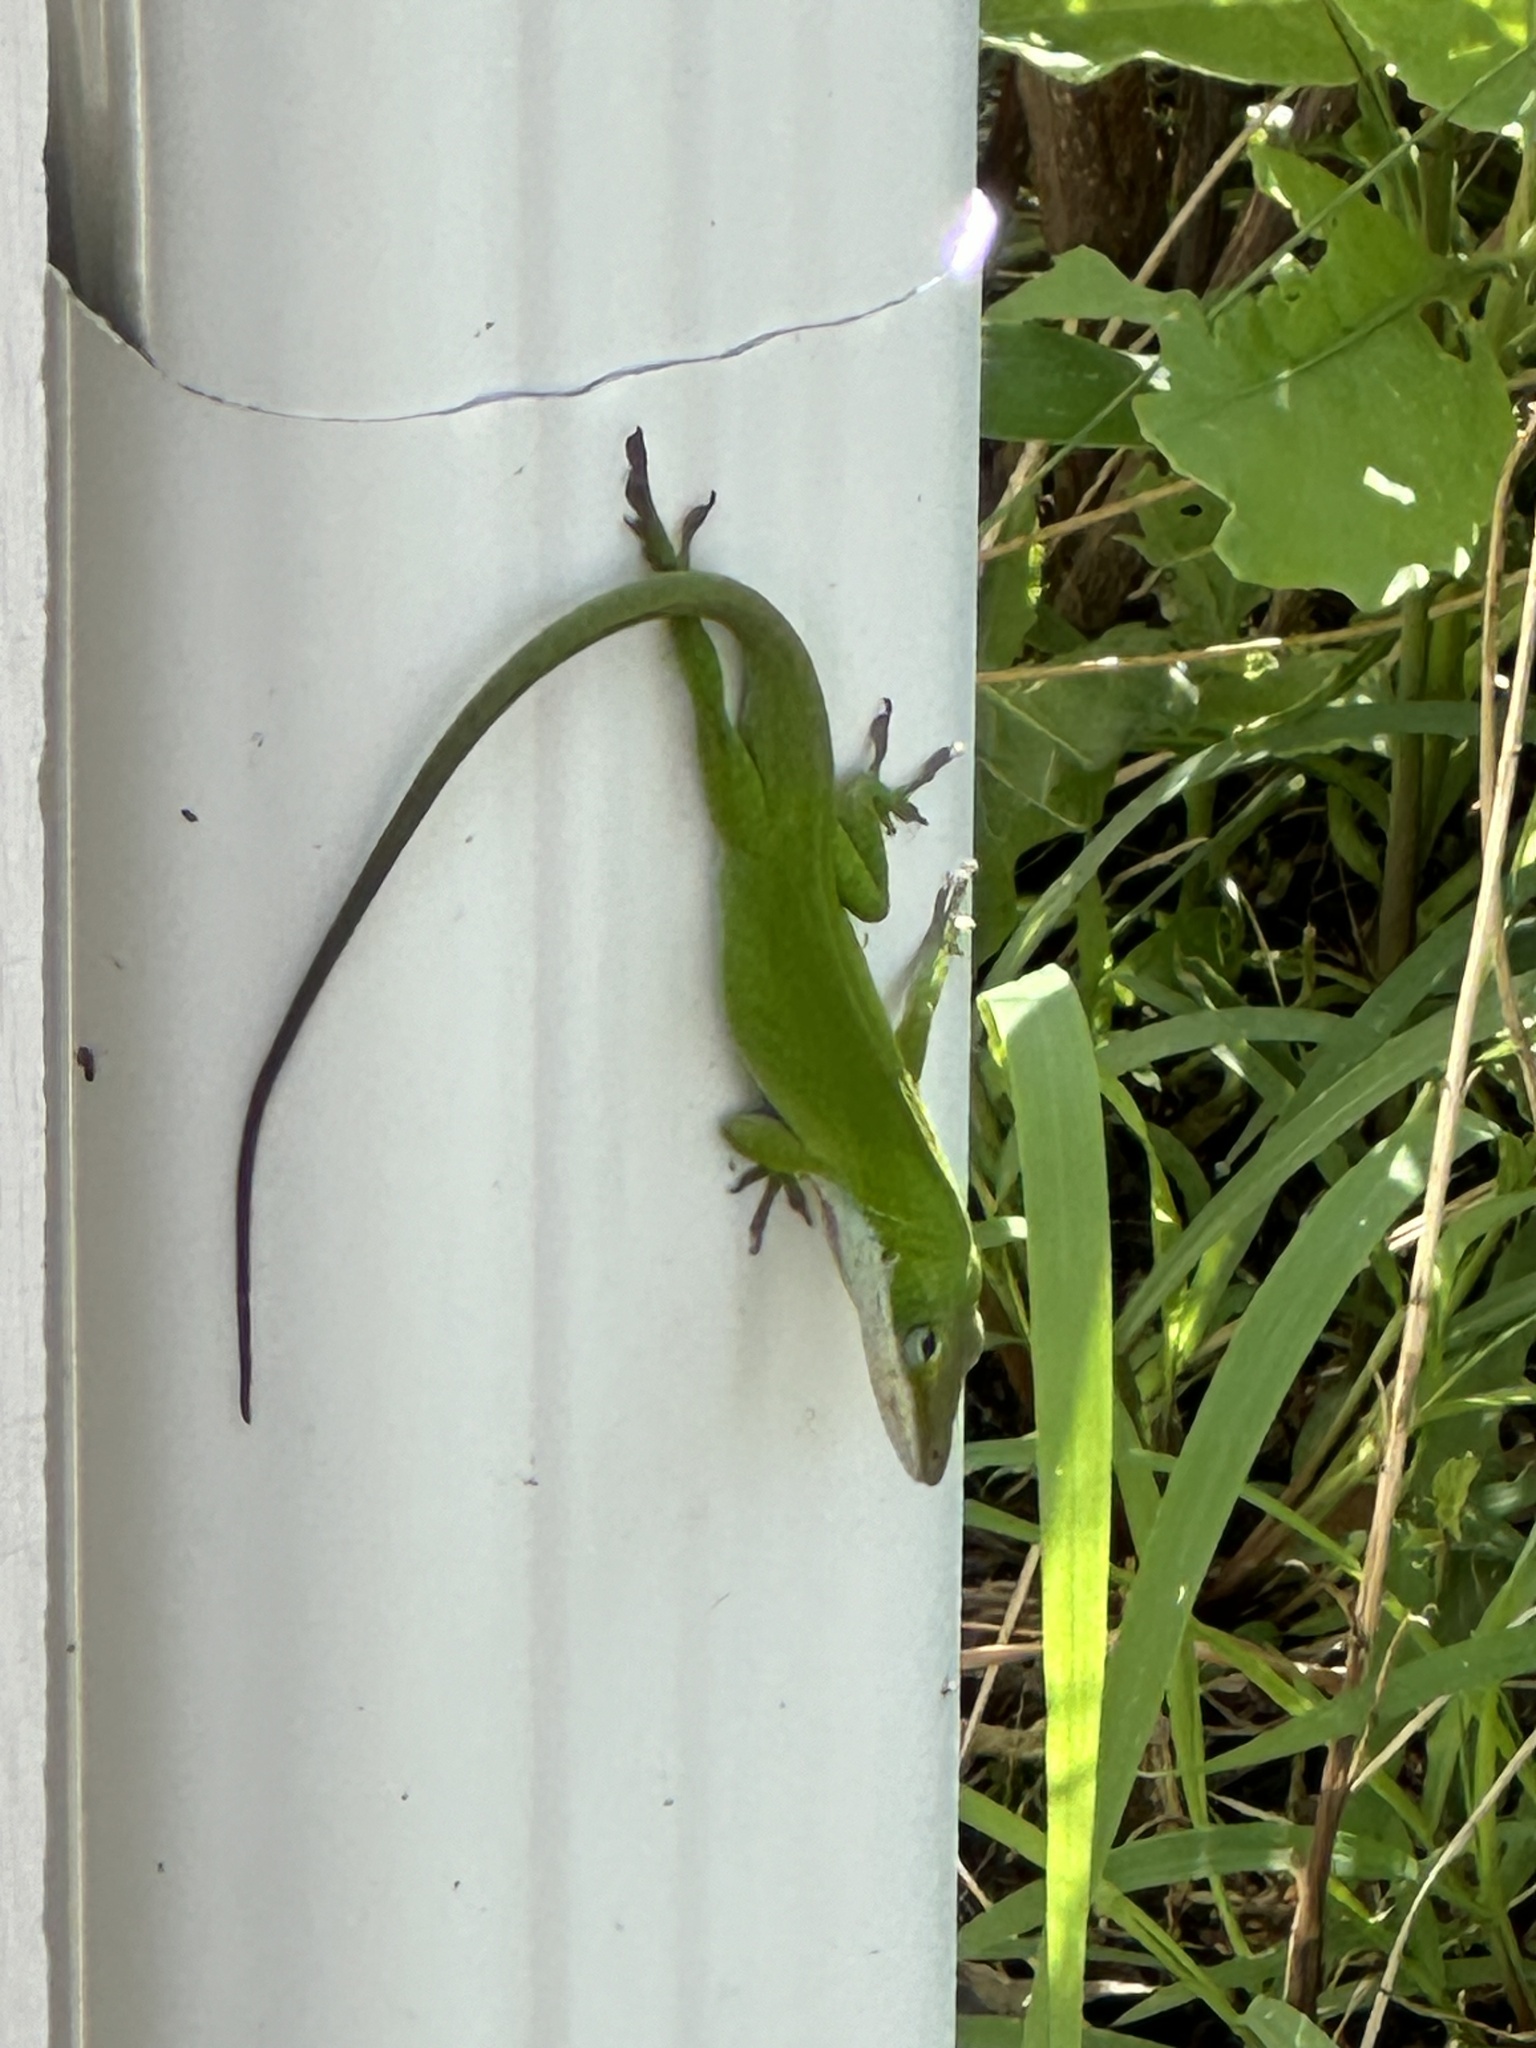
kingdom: Animalia
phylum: Chordata
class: Squamata
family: Dactyloidae
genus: Anolis
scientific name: Anolis carolinensis
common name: Green anole
